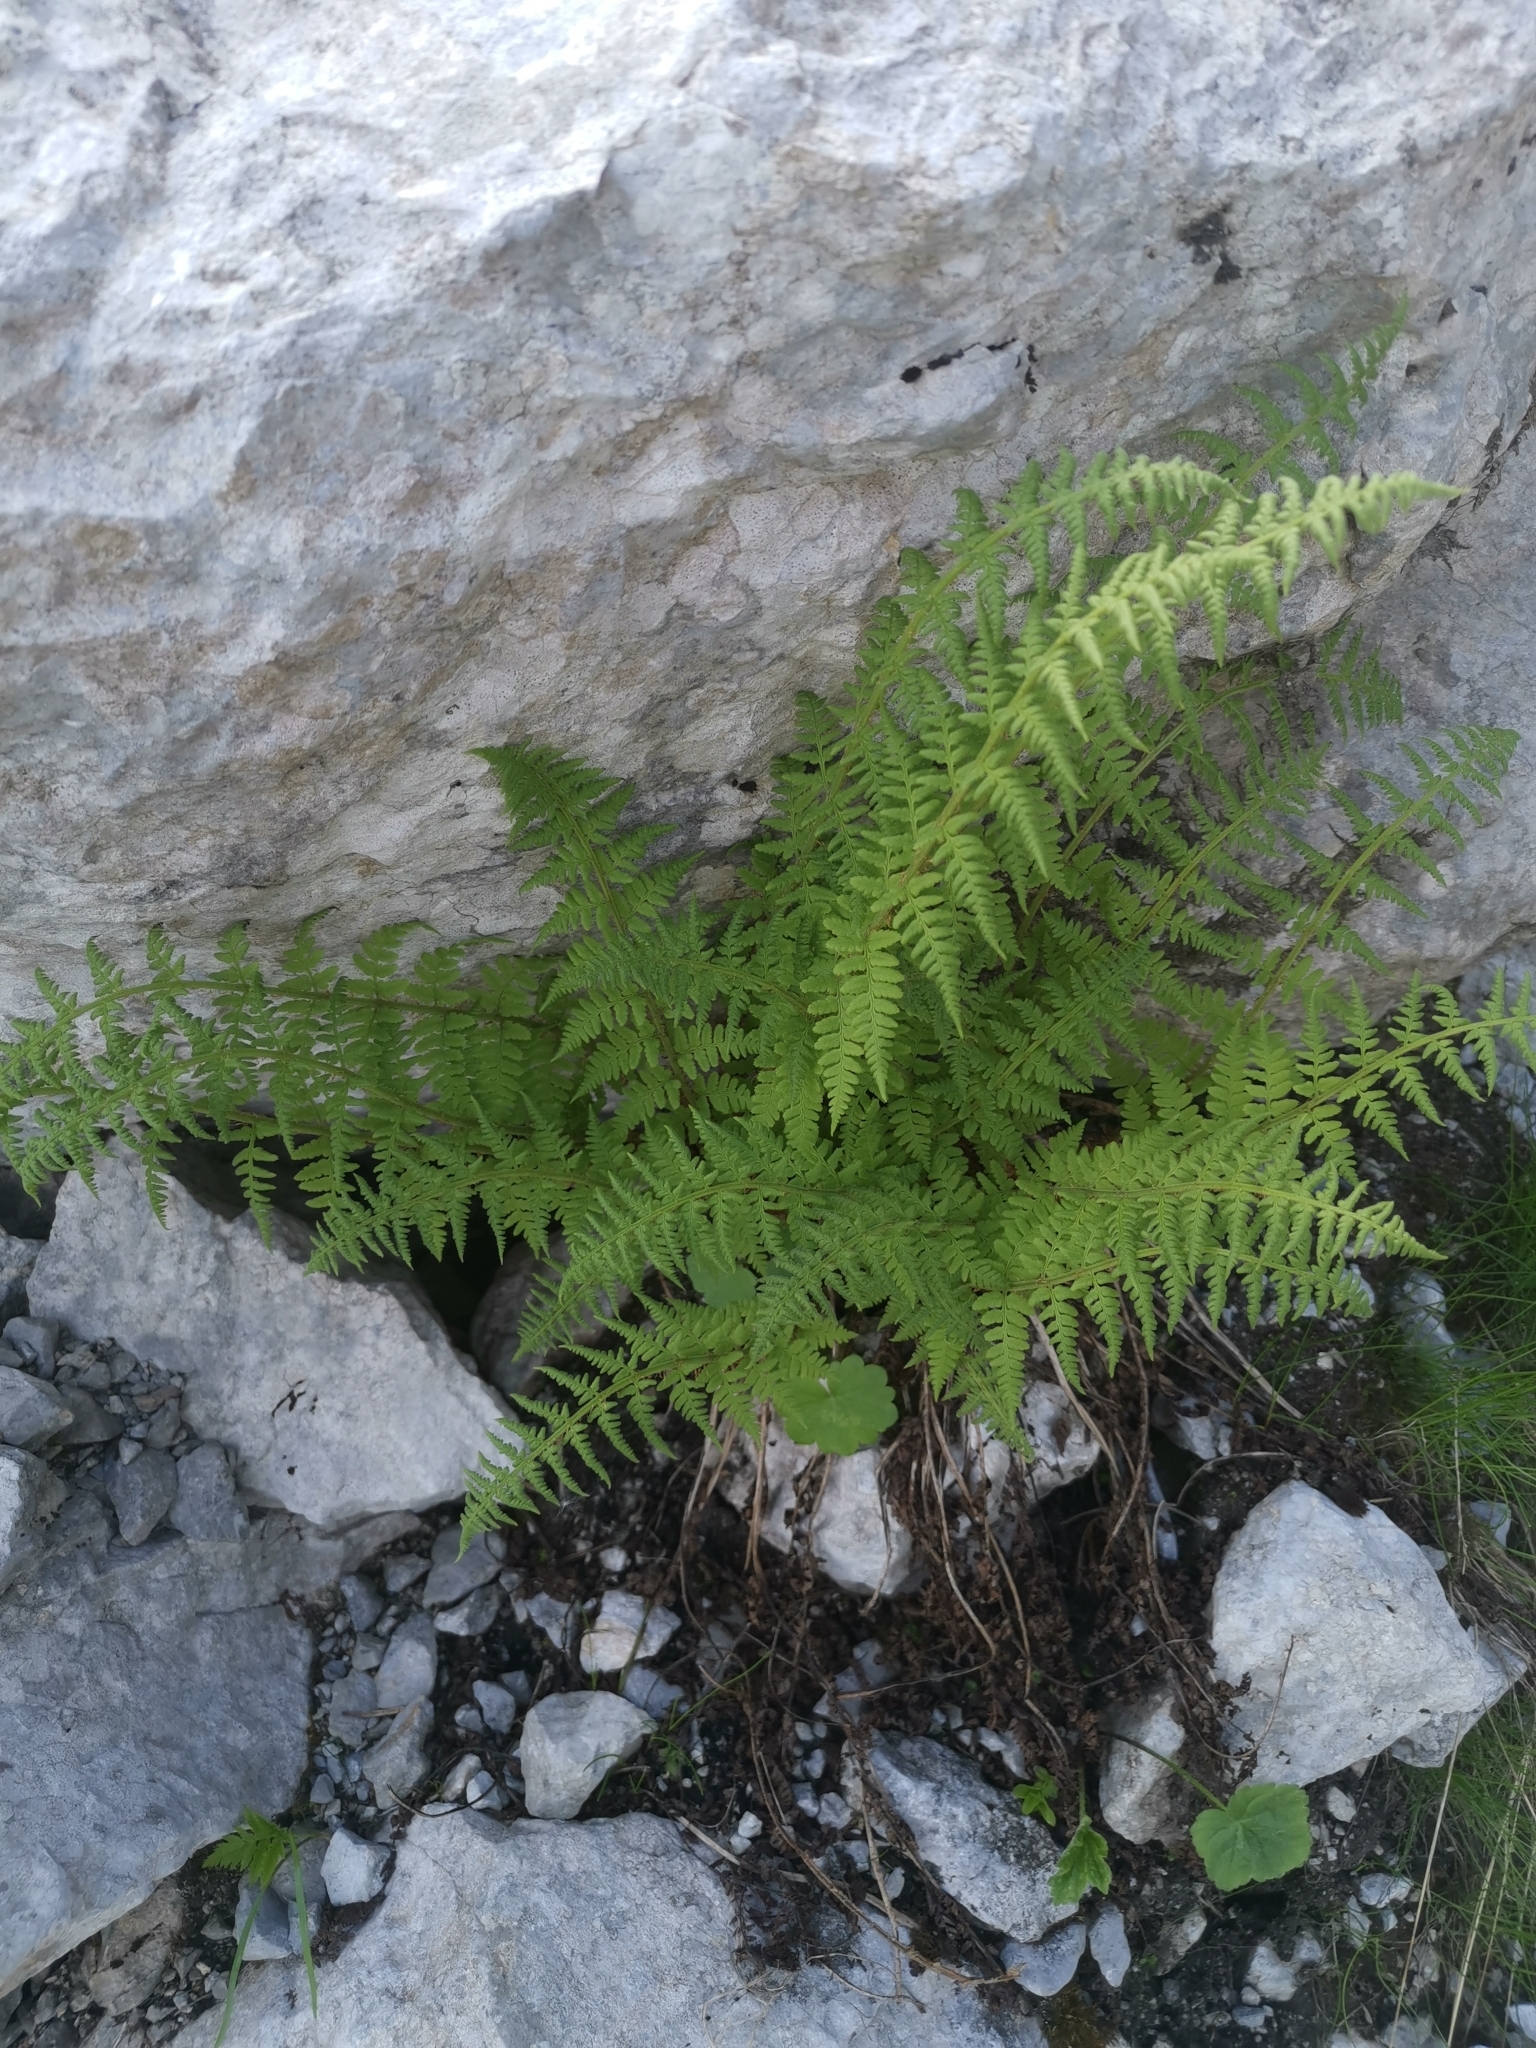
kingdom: Plantae
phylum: Tracheophyta
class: Polypodiopsida
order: Polypodiales
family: Dryopteridaceae
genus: Dryopteris
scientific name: Dryopteris villarii
